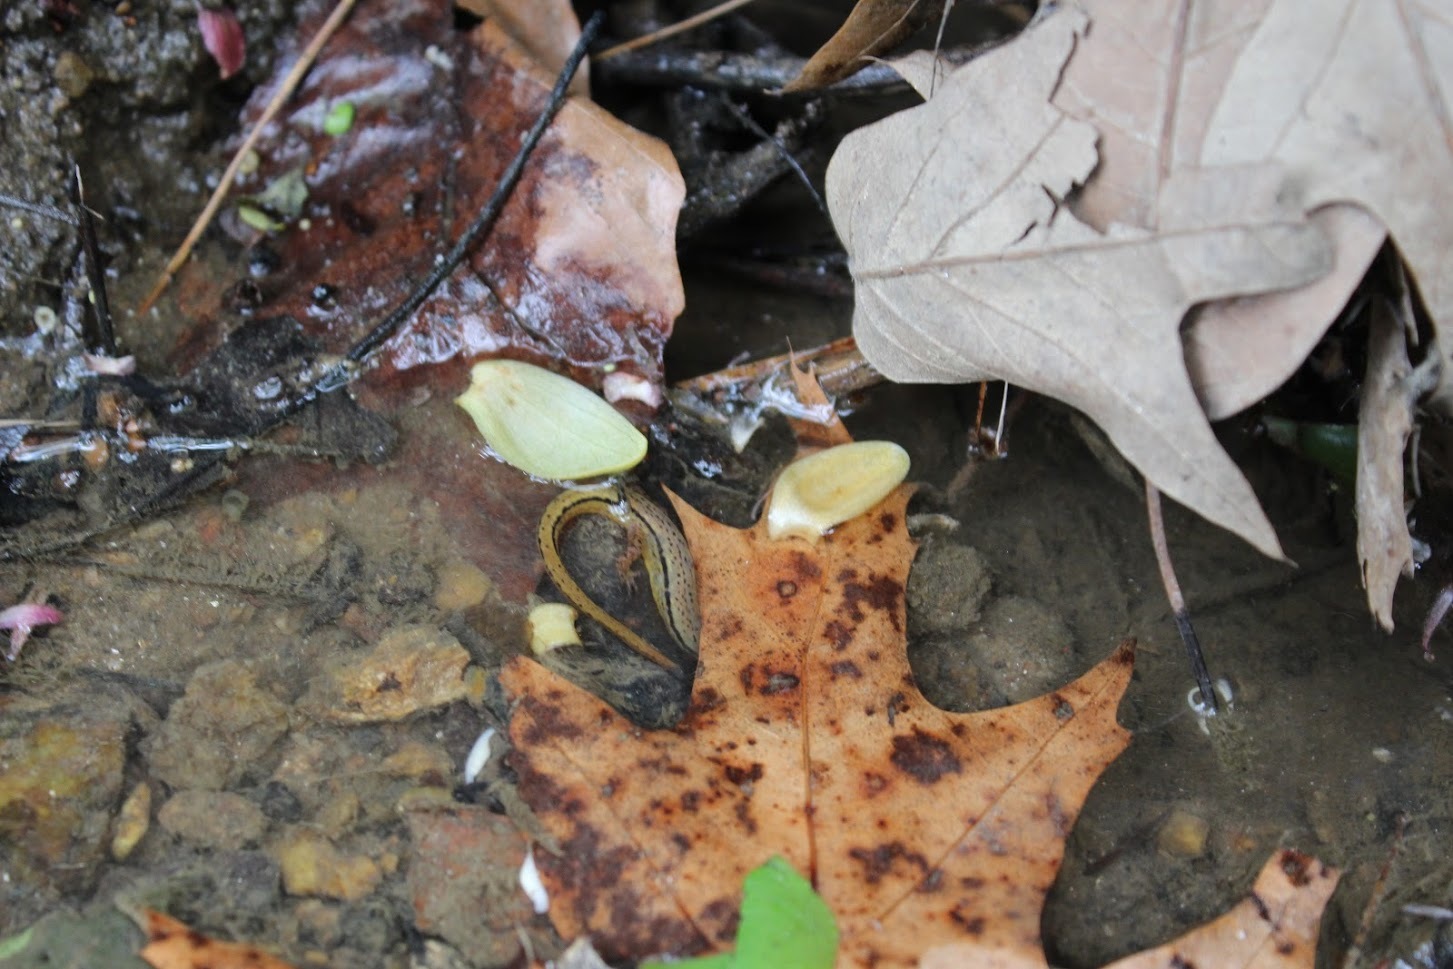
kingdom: Animalia
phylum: Chordata
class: Amphibia
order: Caudata
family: Plethodontidae
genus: Eurycea
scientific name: Eurycea wilderae
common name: Blue ridge two-lined salamander
